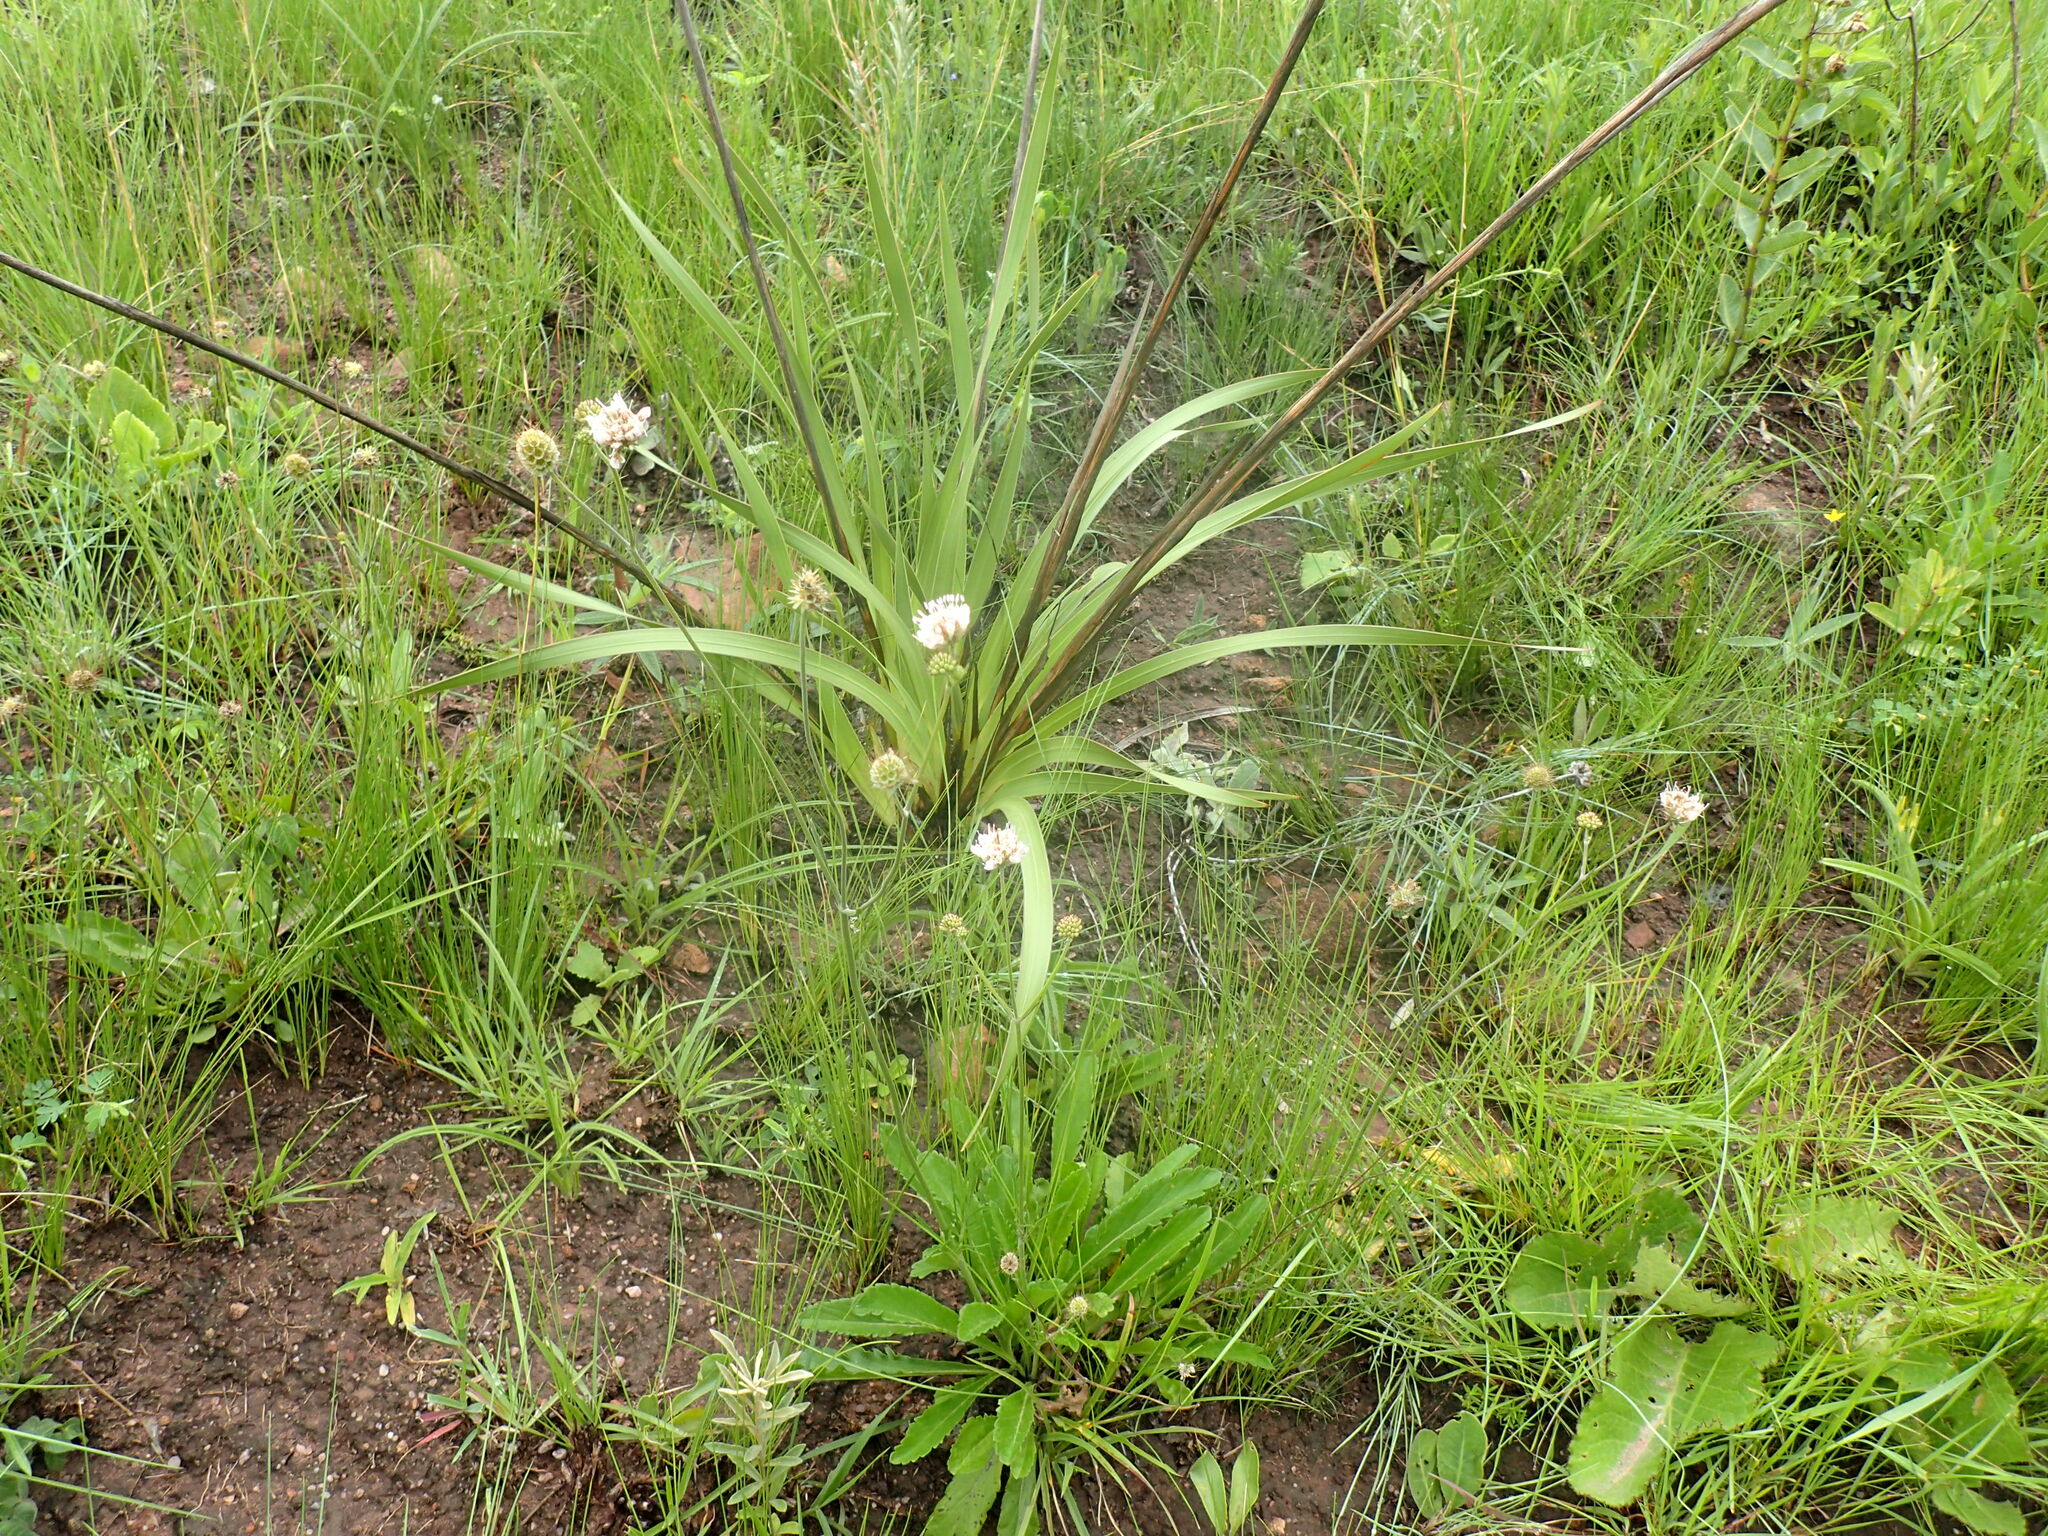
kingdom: Plantae
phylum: Tracheophyta
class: Magnoliopsida
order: Dipsacales
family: Caprifoliaceae
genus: Scabiosa
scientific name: Scabiosa columbaria
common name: Small scabious
